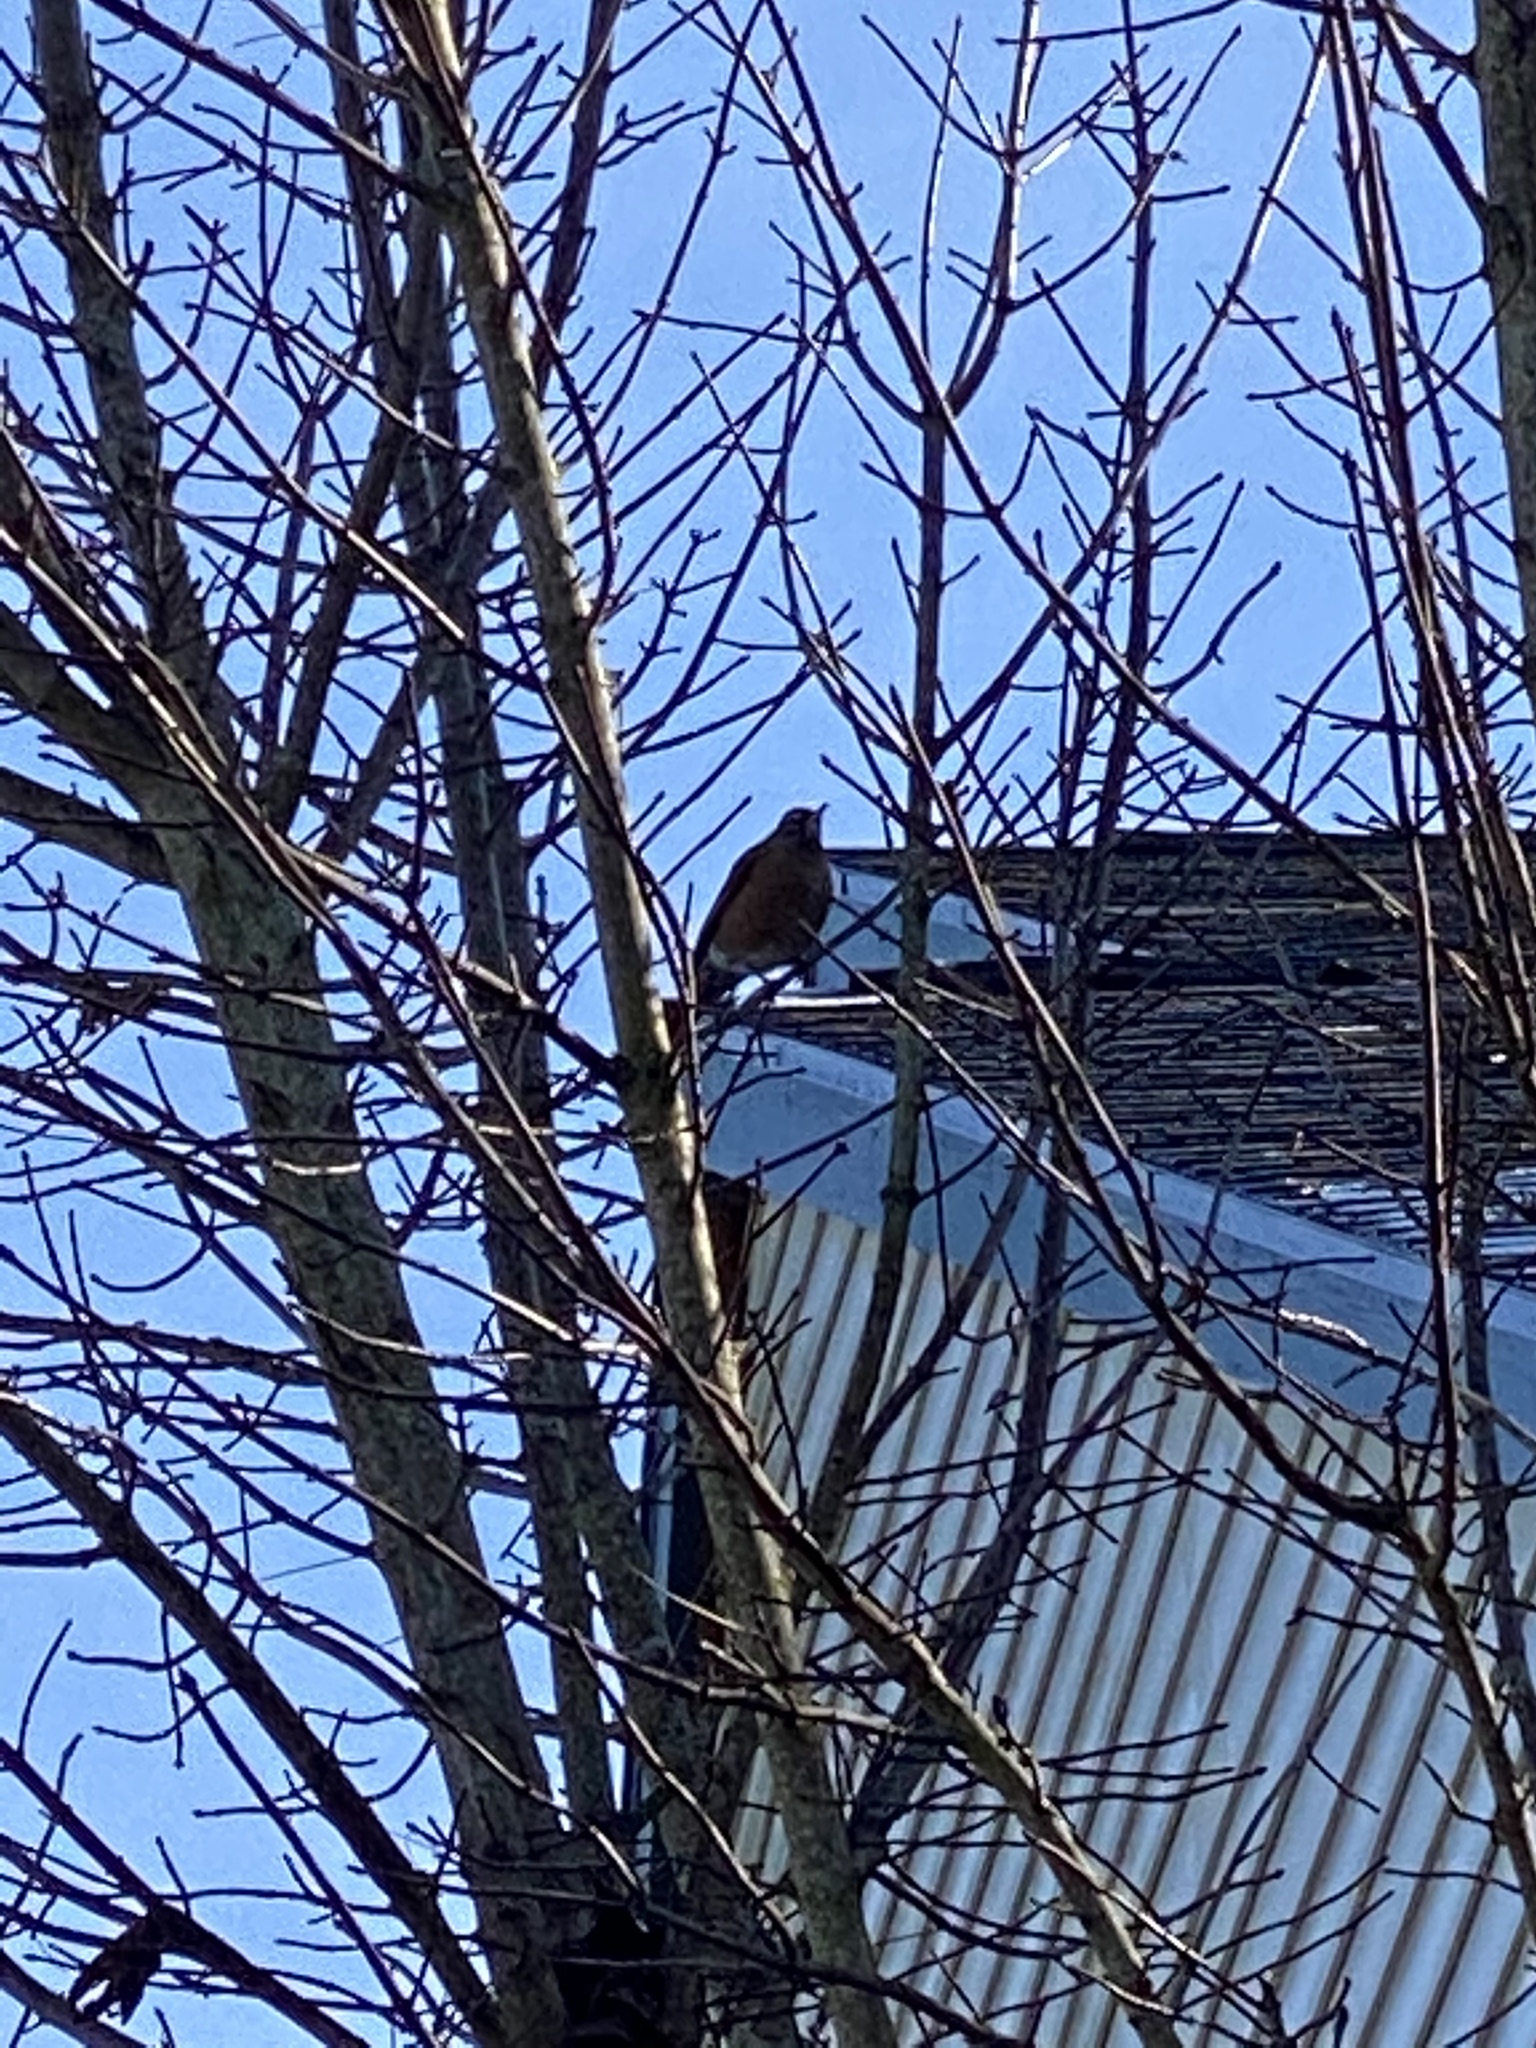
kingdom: Animalia
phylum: Chordata
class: Aves
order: Passeriformes
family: Turdidae
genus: Turdus
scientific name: Turdus migratorius
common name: American robin
